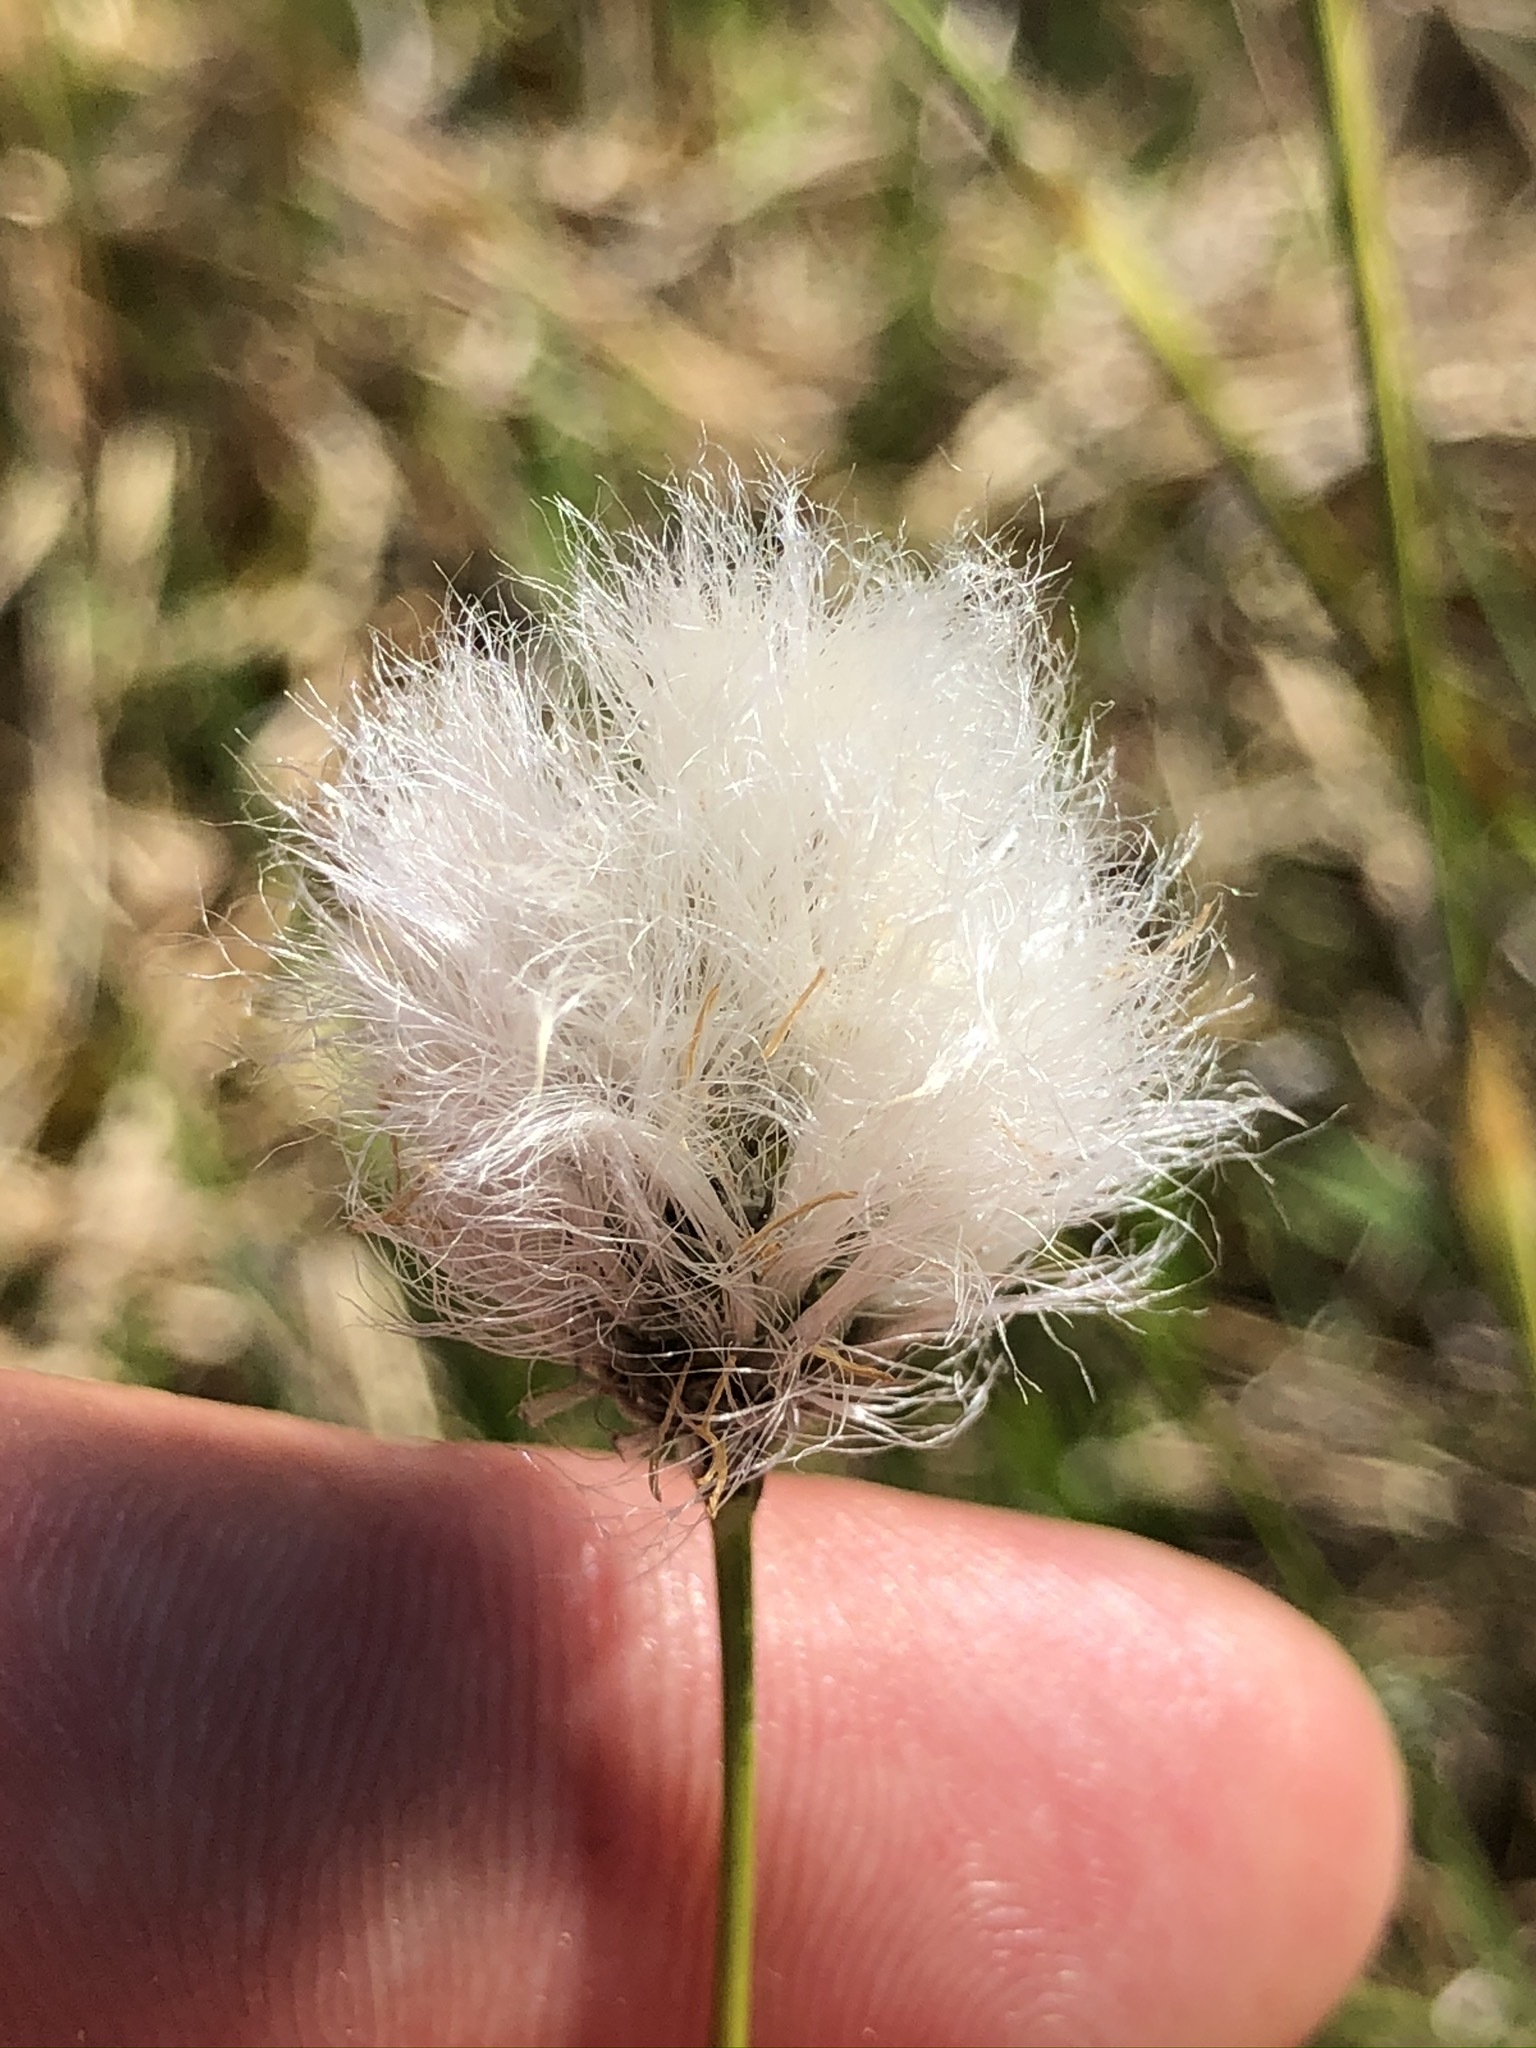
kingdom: Plantae
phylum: Tracheophyta
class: Liliopsida
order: Poales
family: Cyperaceae
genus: Eriophorum
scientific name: Eriophorum vaginatum
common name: Hare's-tail cottongrass
